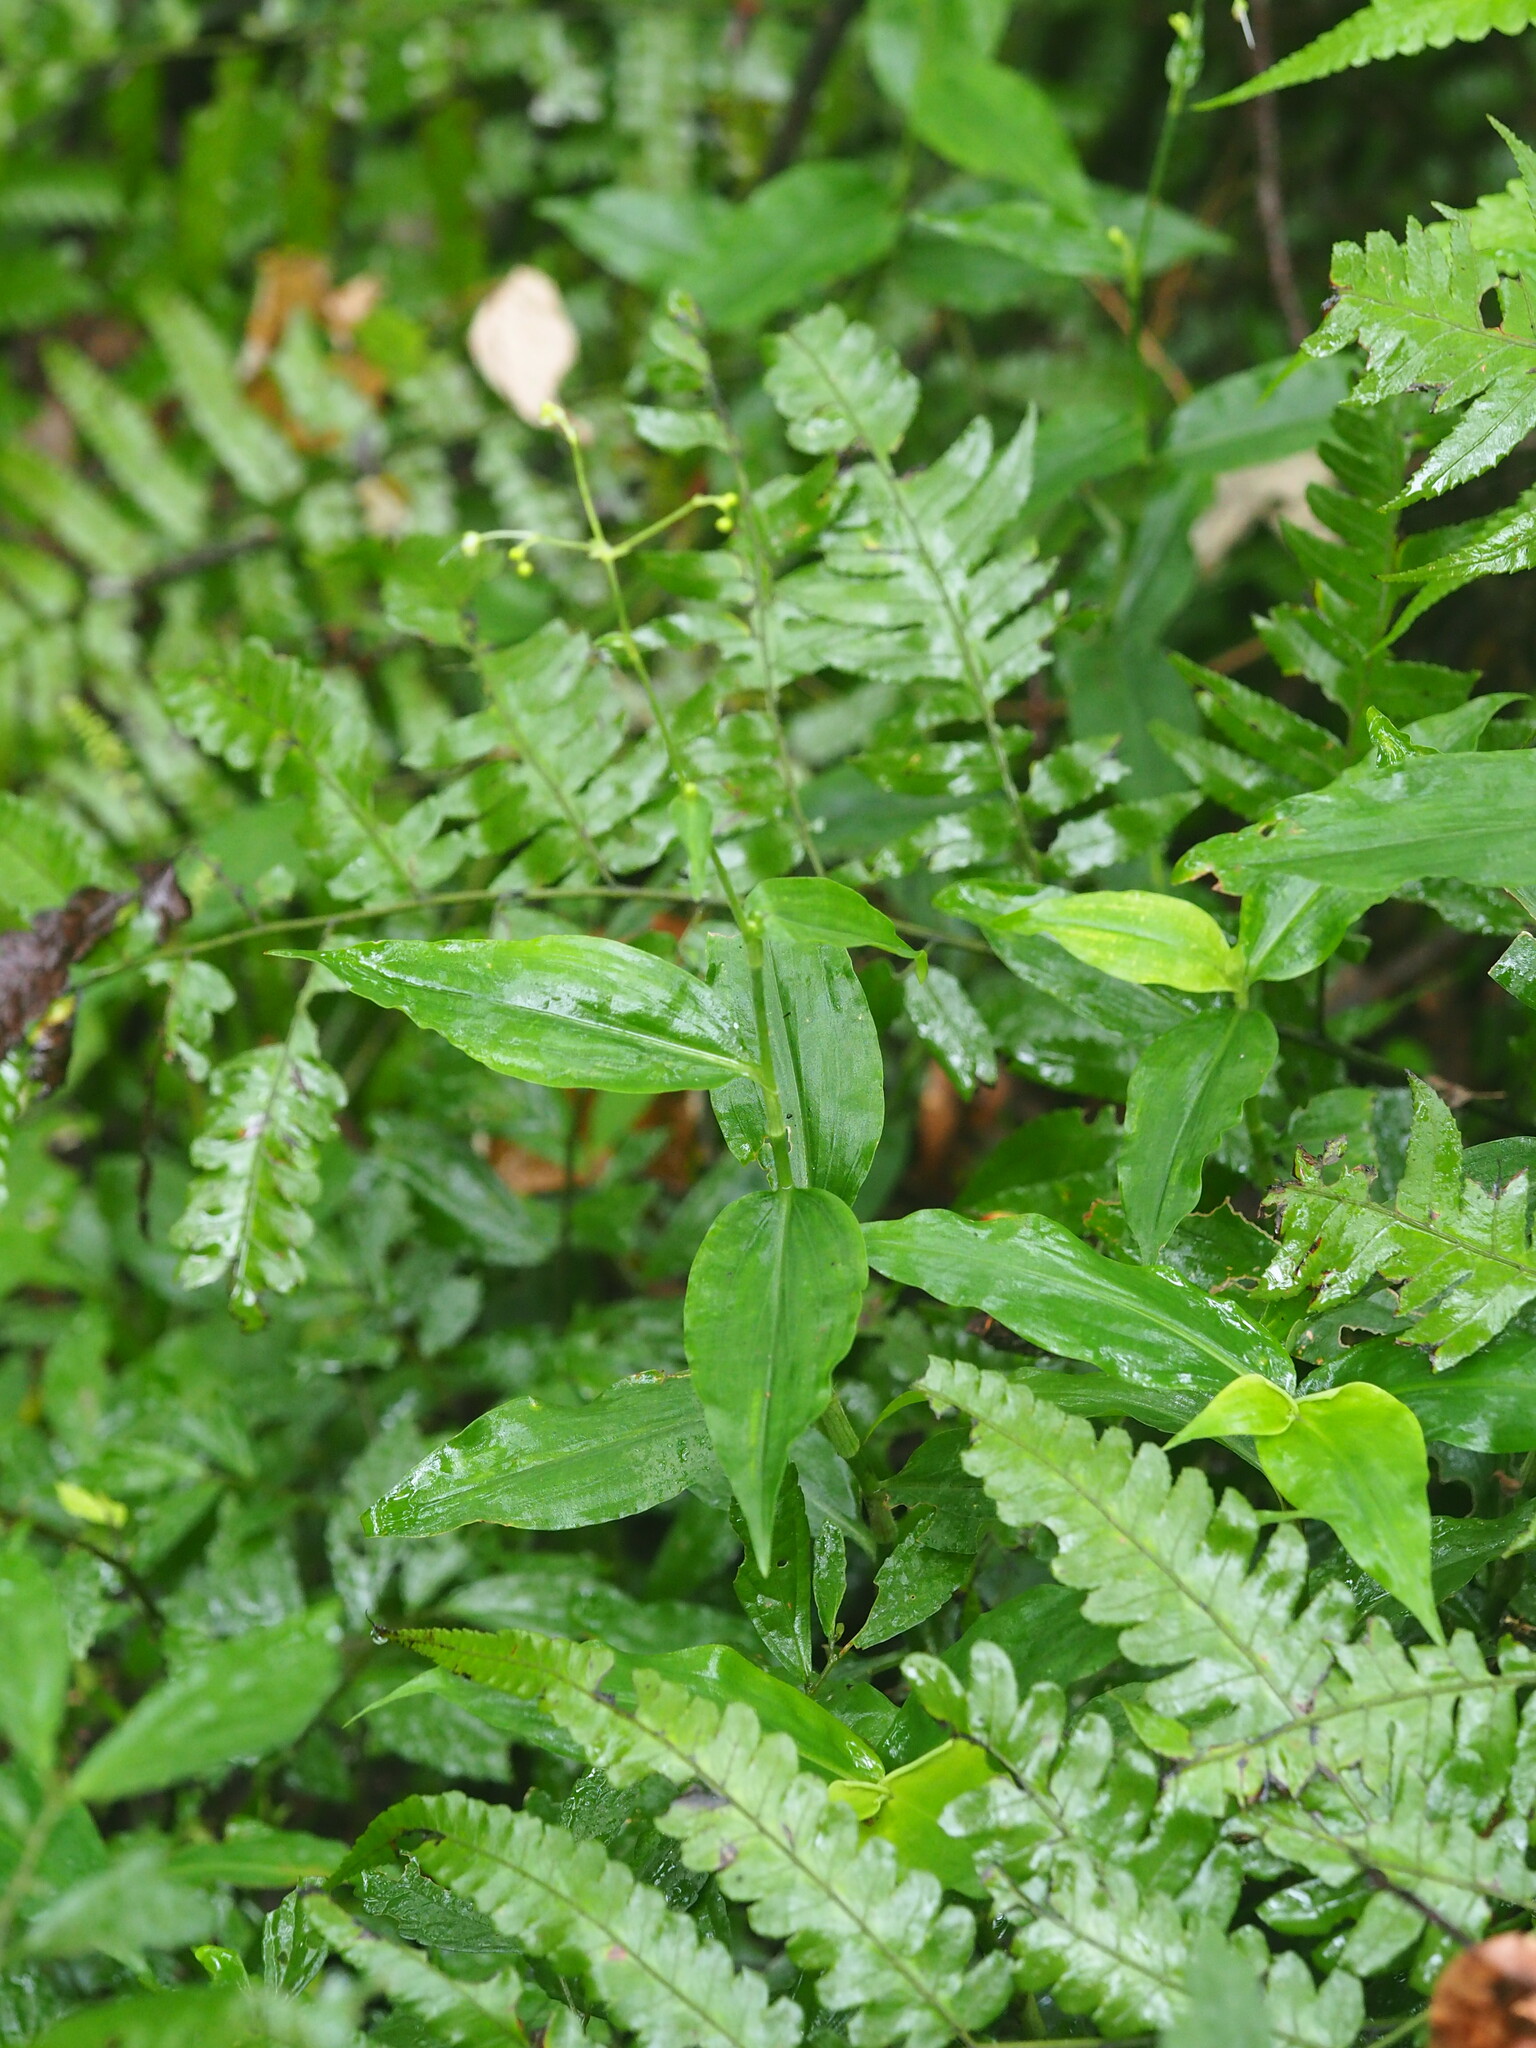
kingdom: Plantae
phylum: Tracheophyta
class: Liliopsida
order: Commelinales
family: Commelinaceae
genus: Rhopalephora
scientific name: Rhopalephora scaberrima
